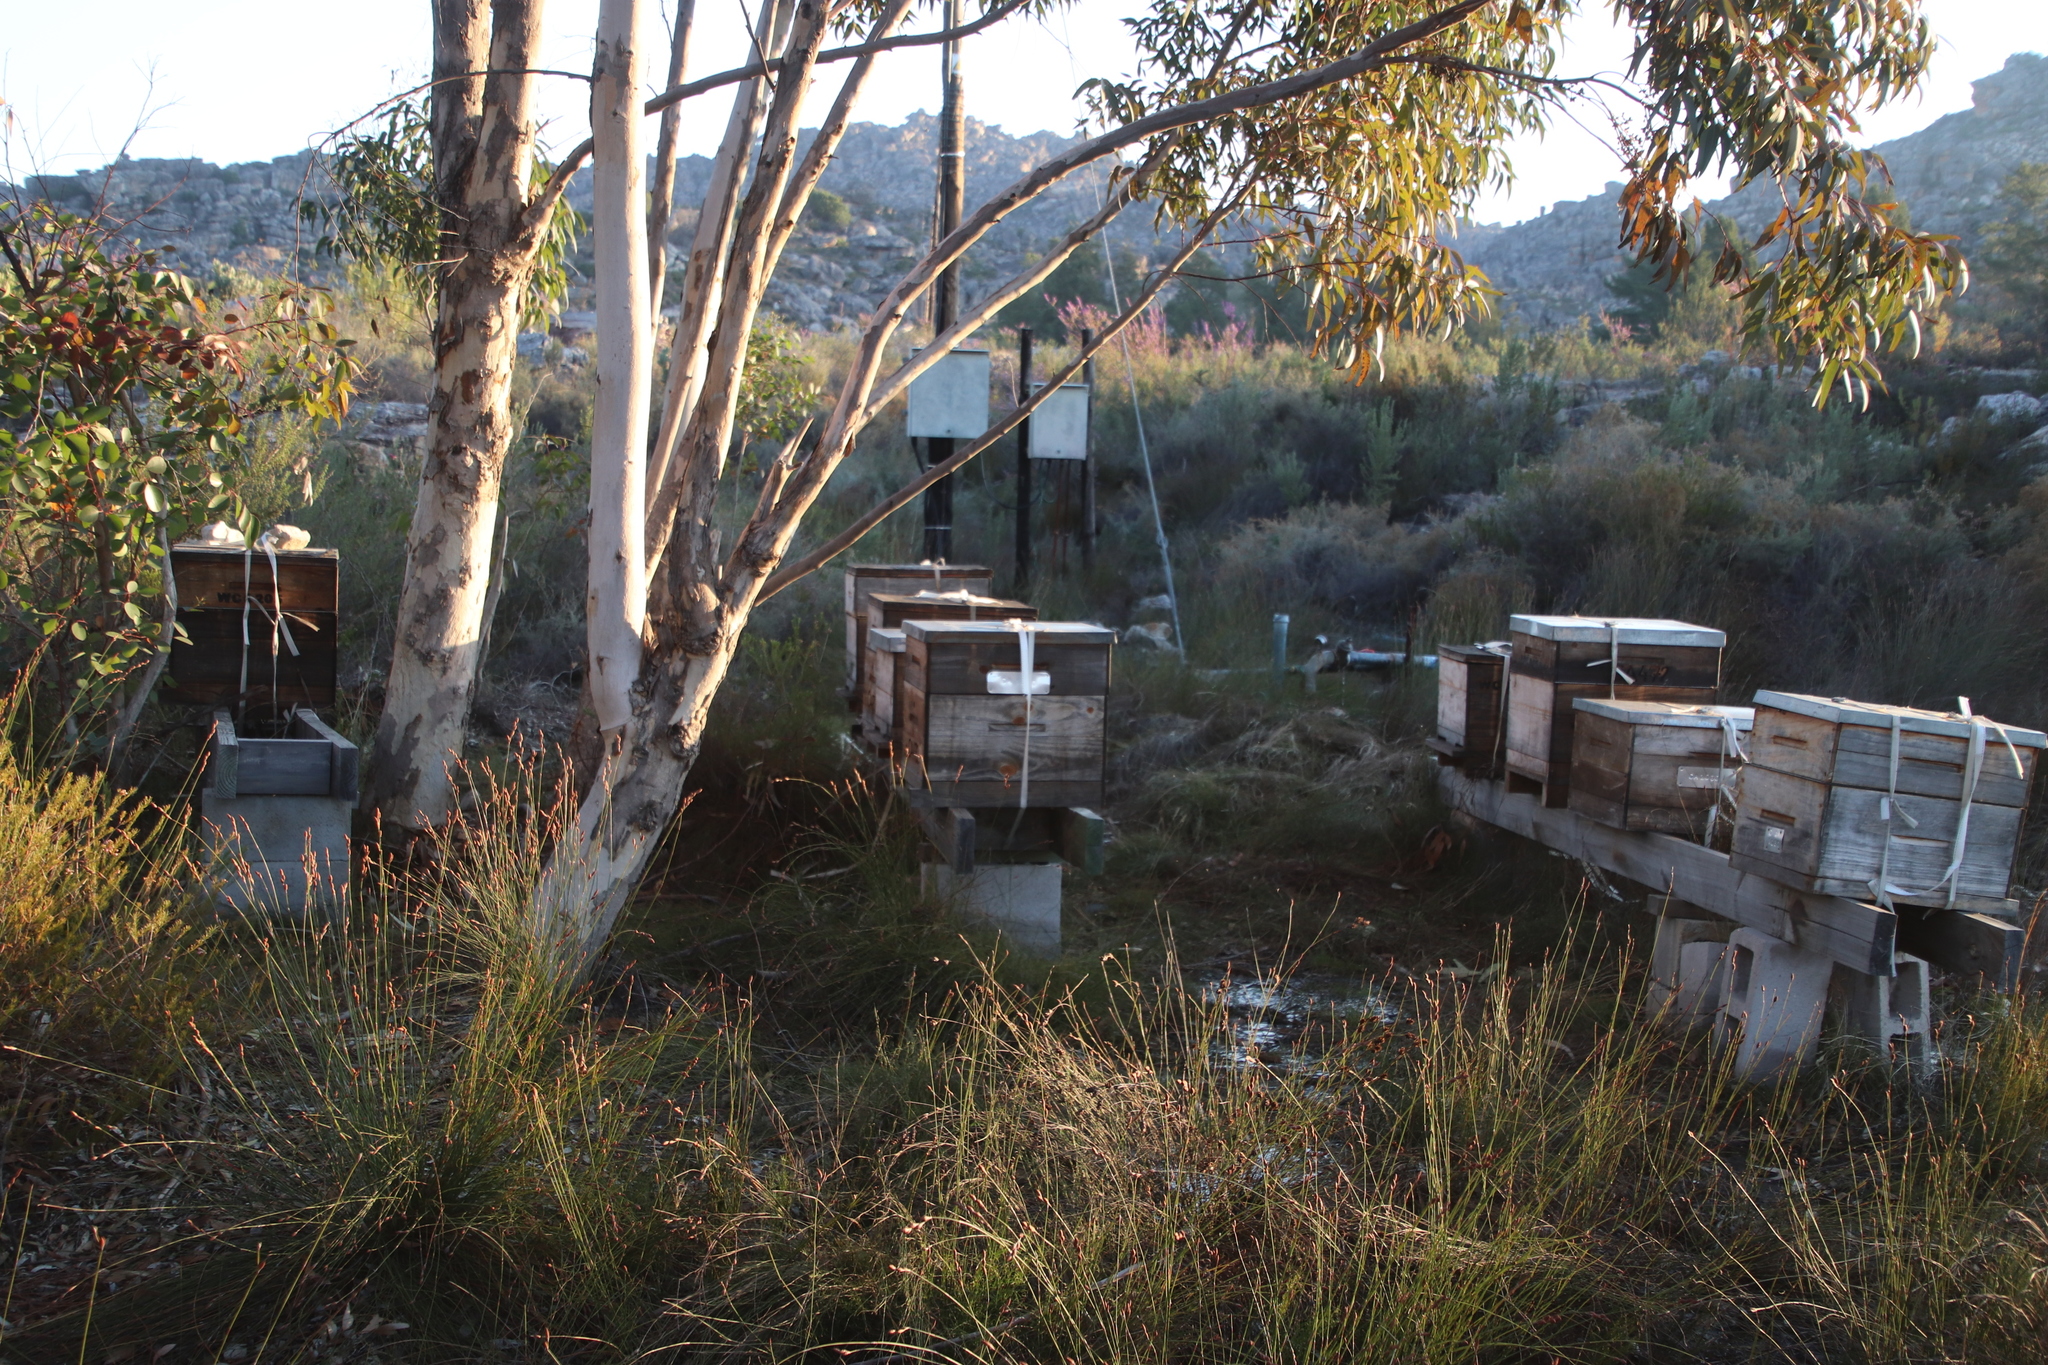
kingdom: Animalia
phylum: Arthropoda
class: Insecta
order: Hymenoptera
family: Apidae
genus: Apis
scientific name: Apis mellifera
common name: Honey bee
